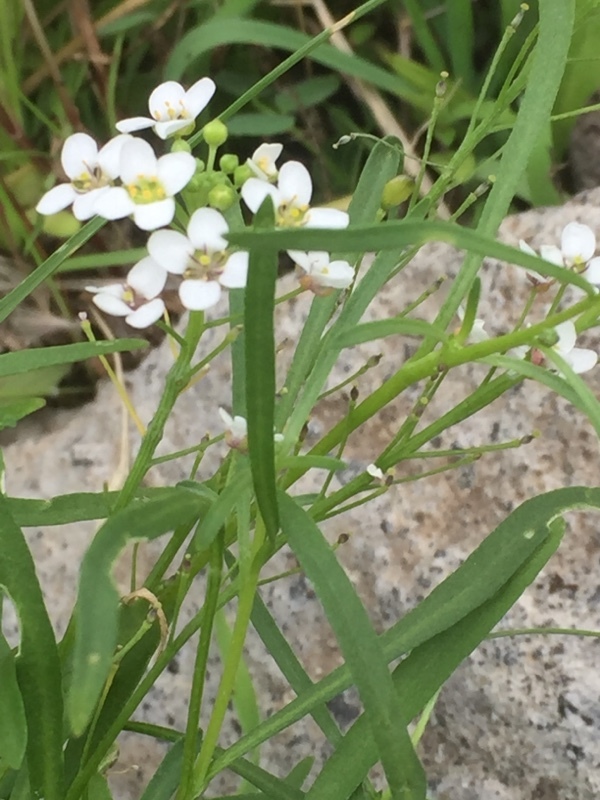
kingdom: Plantae
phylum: Tracheophyta
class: Magnoliopsida
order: Brassicales
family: Brassicaceae
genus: Lobularia
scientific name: Lobularia maritima
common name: Sweet alison
